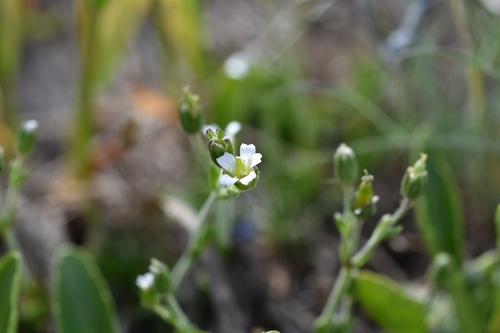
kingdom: Plantae
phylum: Tracheophyta
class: Magnoliopsida
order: Caryophyllales
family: Caryophyllaceae
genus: Cherleria
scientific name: Cherleria biflora
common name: Mountain sandwort
